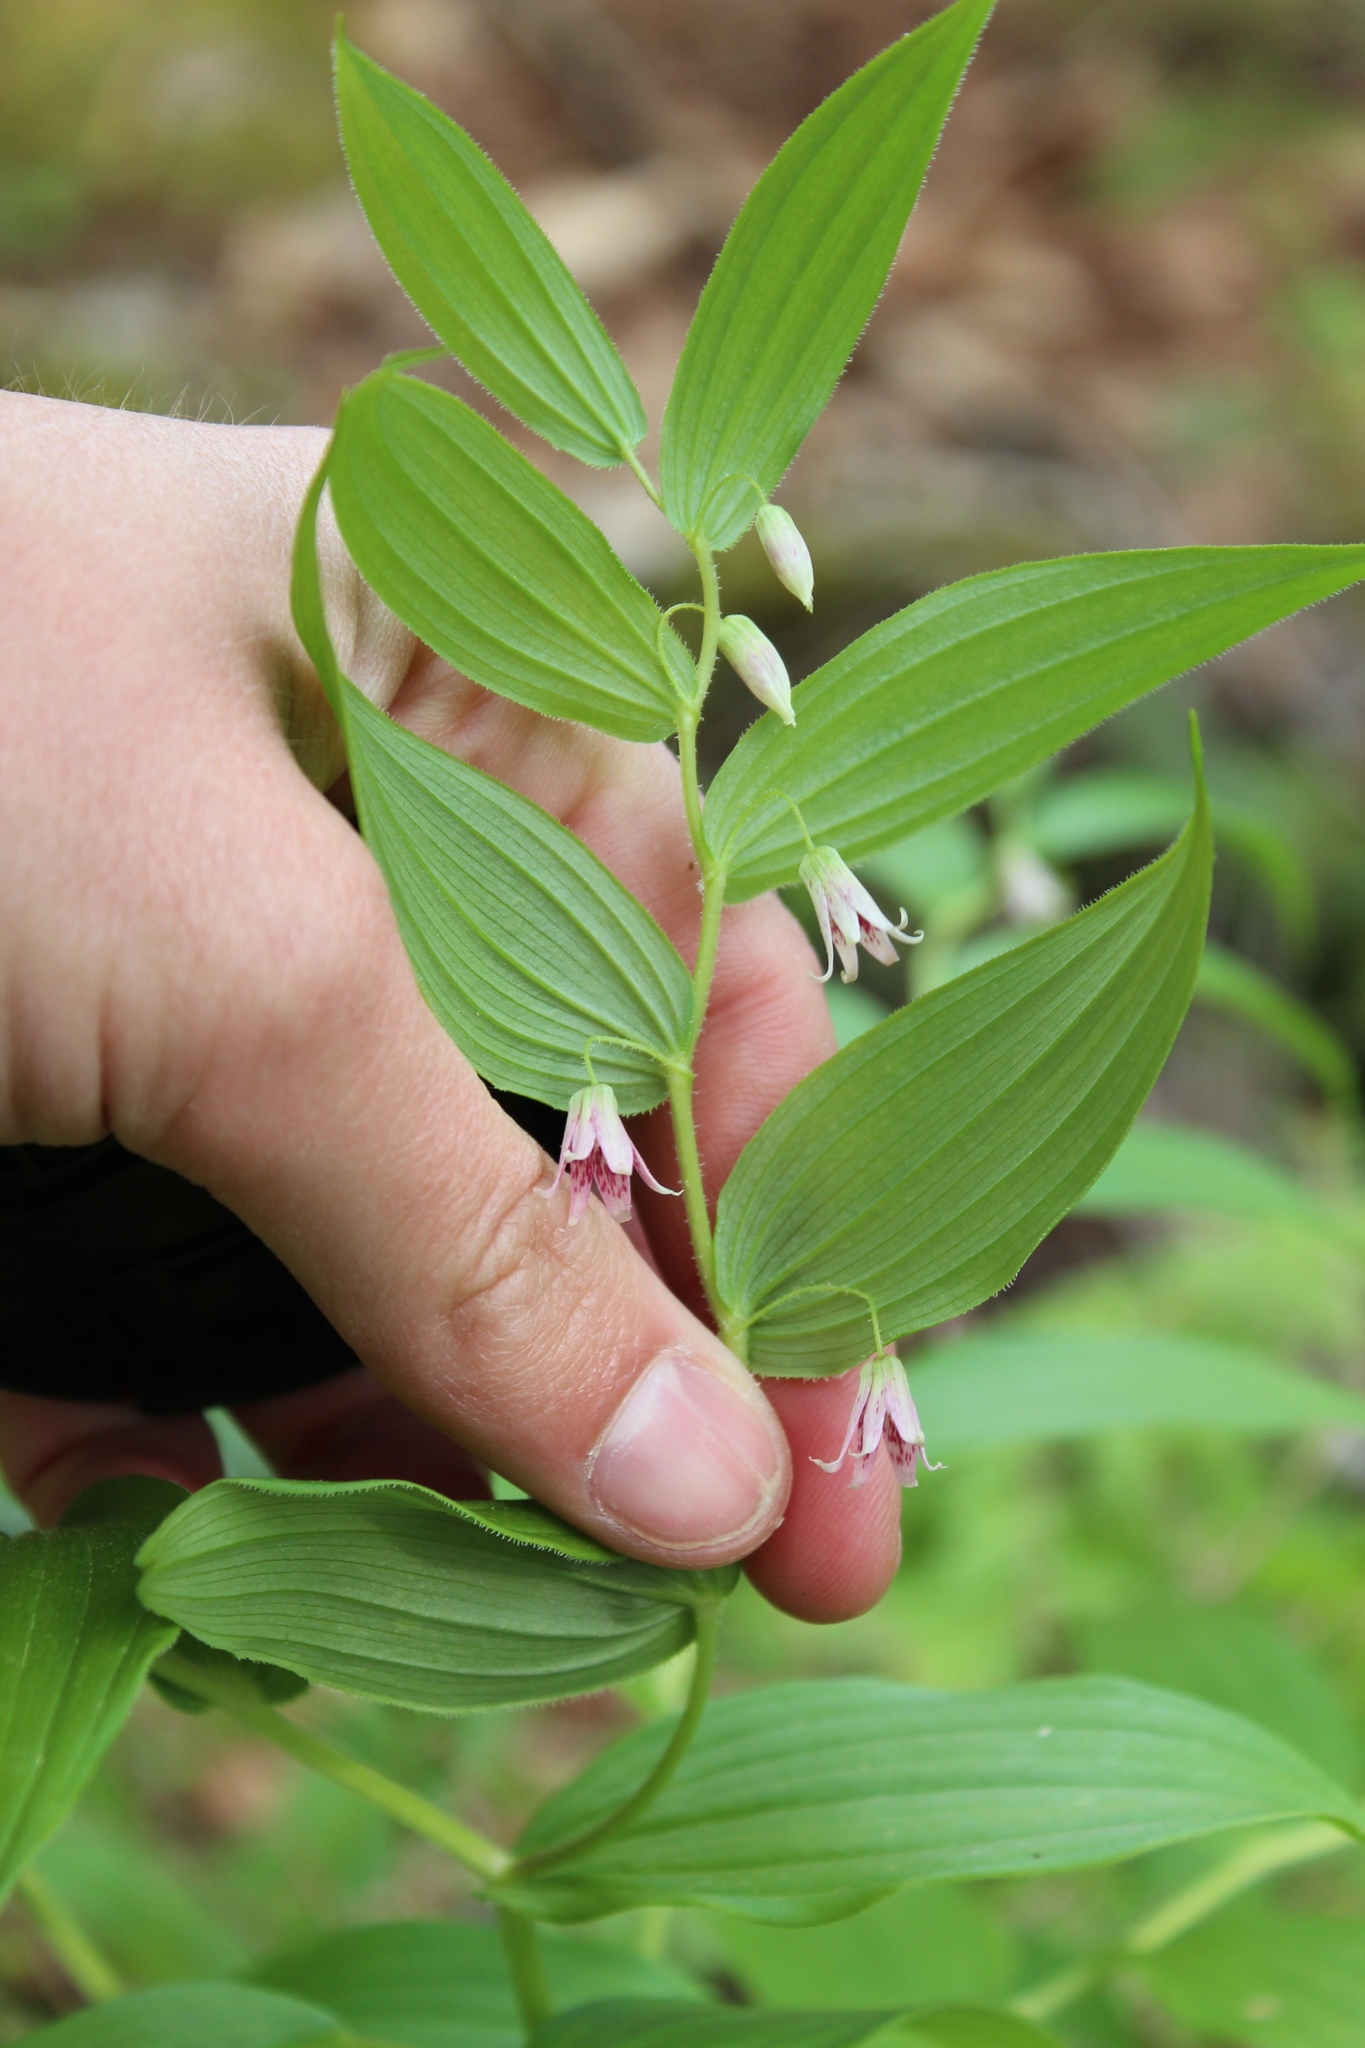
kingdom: Plantae
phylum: Tracheophyta
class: Liliopsida
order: Liliales
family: Liliaceae
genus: Streptopus
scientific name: Streptopus lanceolatus
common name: Rose mandarin
